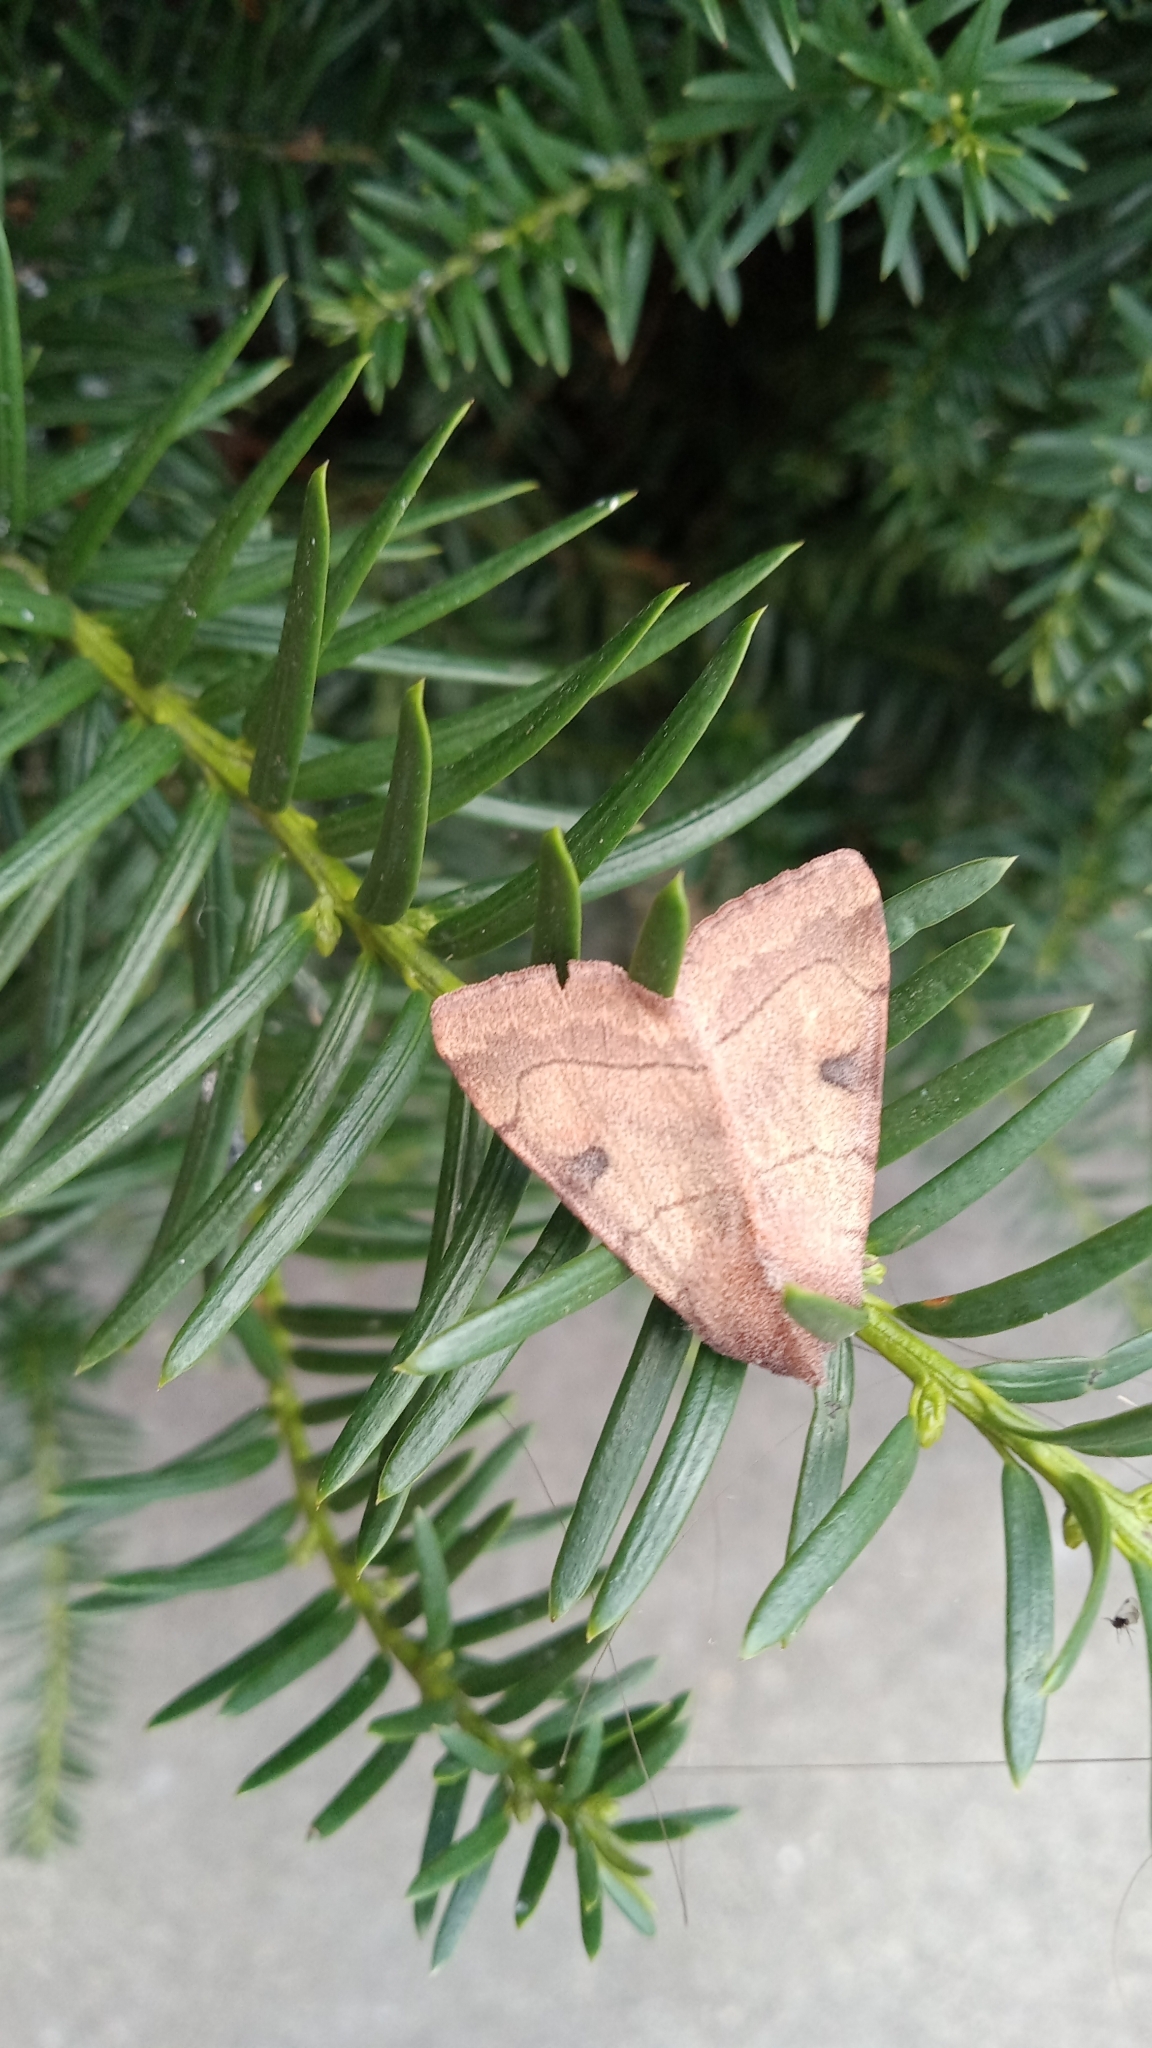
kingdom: Animalia
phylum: Arthropoda
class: Insecta
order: Lepidoptera
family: Noctuidae
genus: Choephora
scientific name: Choephora fungorum
